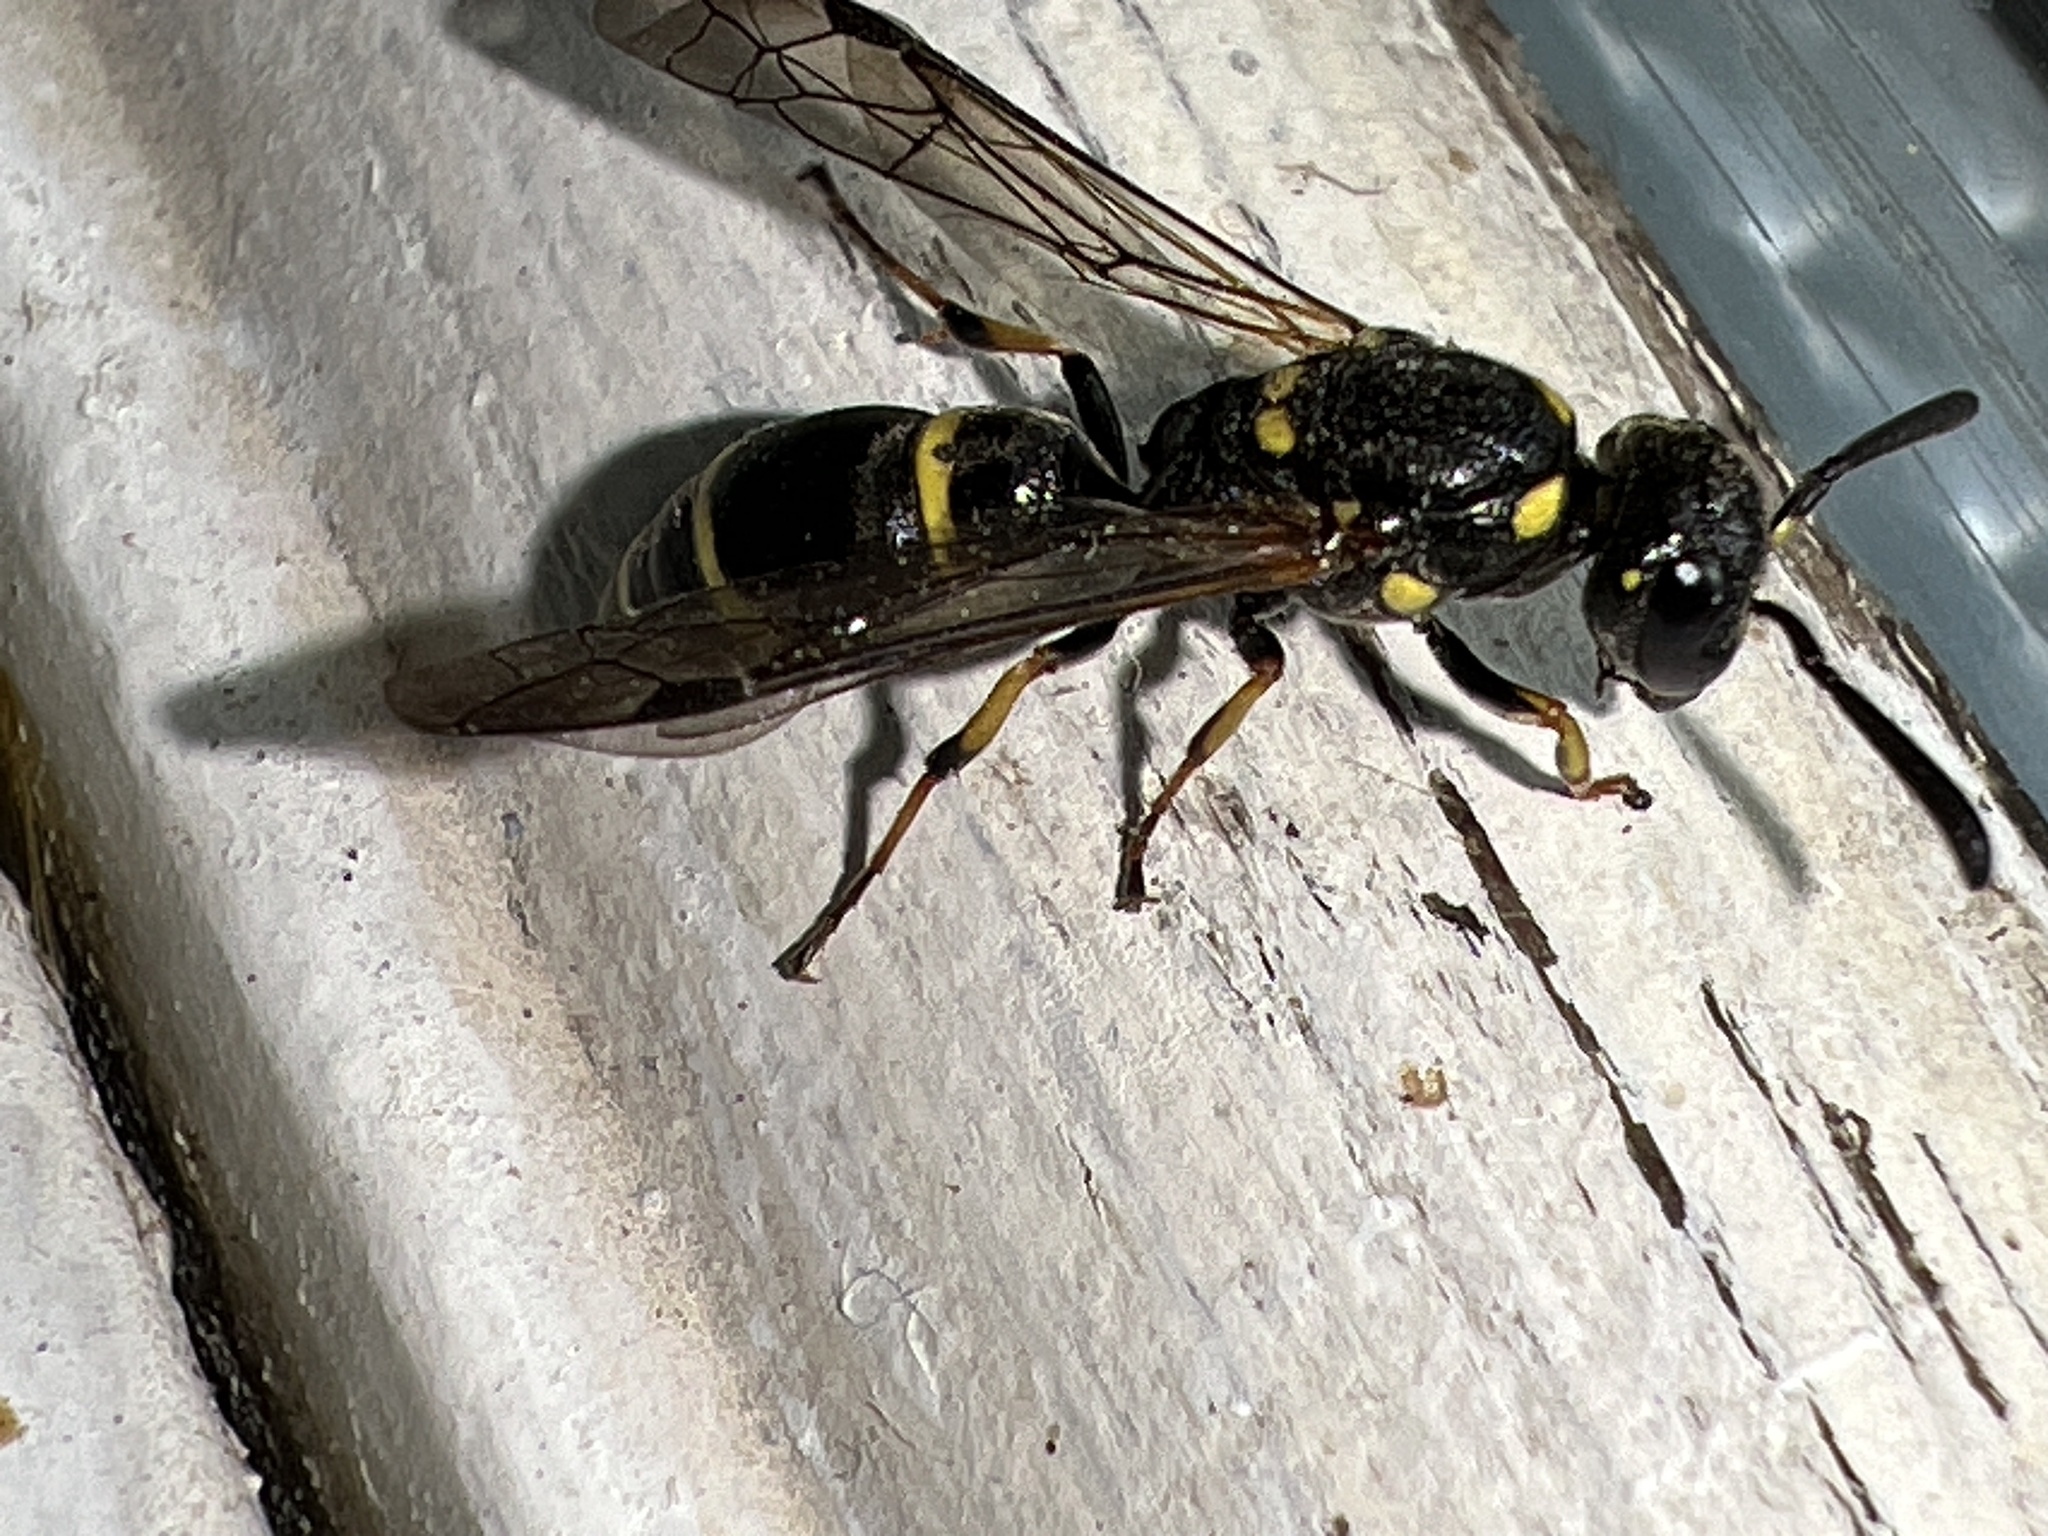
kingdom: Animalia
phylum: Arthropoda
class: Insecta
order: Hymenoptera
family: Eumenidae
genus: Symmorphus
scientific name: Symmorphus
